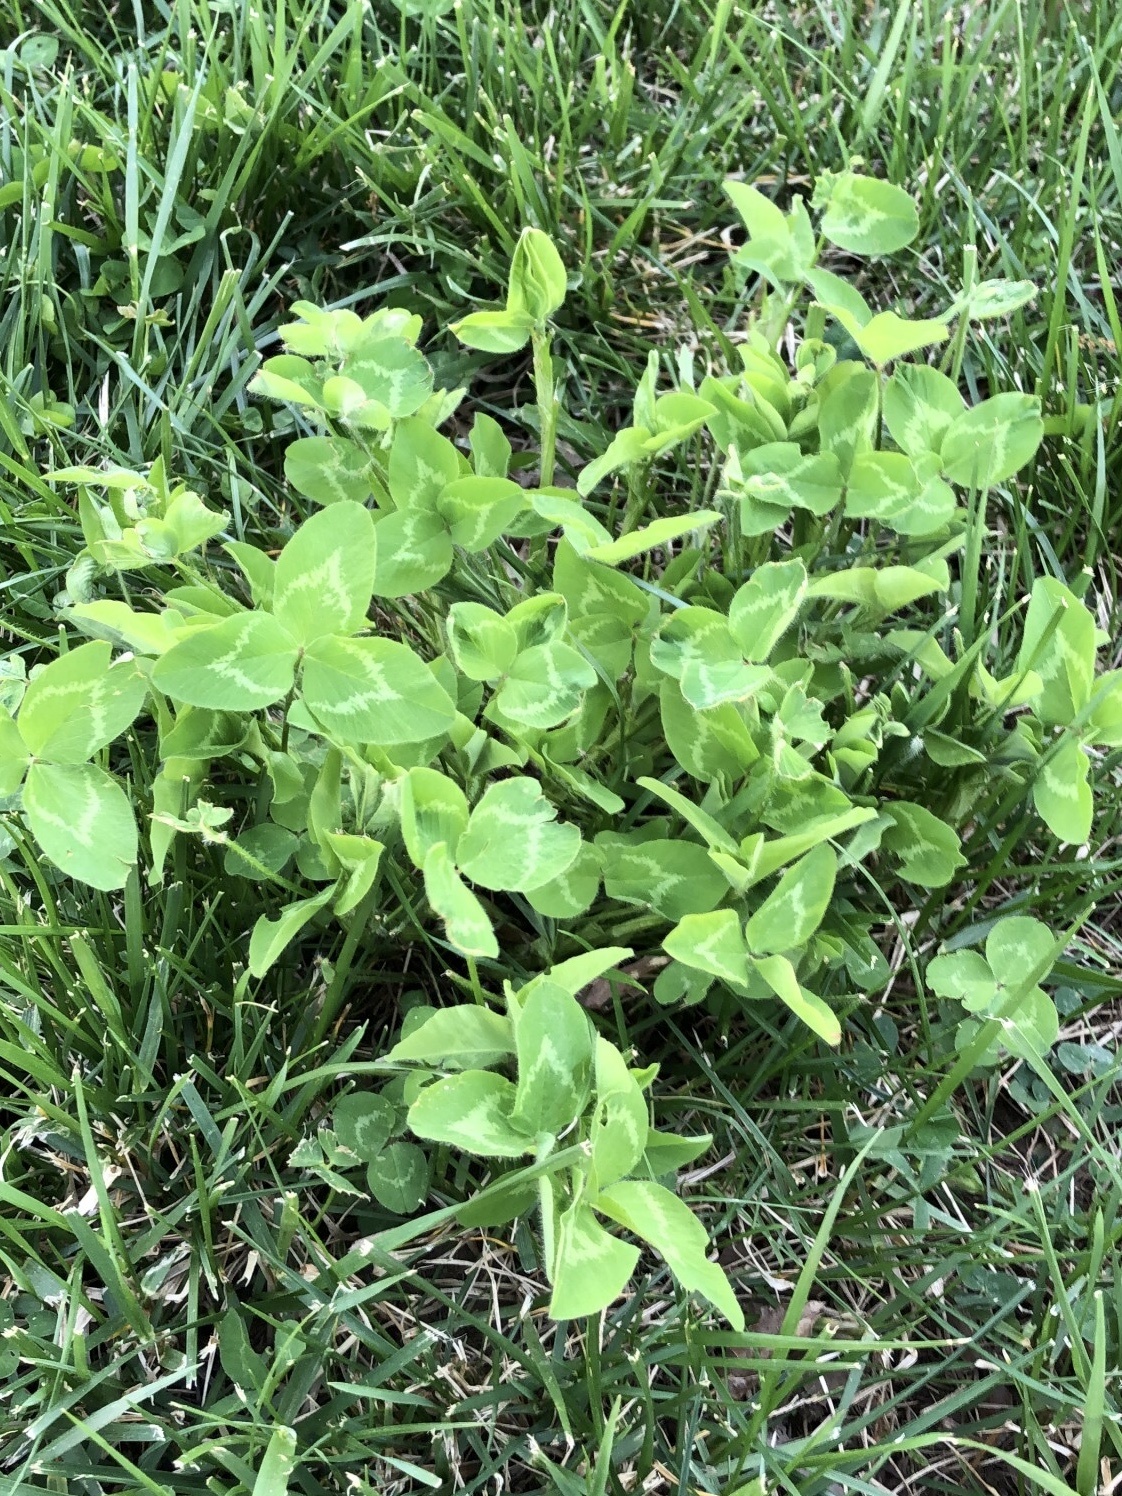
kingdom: Plantae
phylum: Tracheophyta
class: Magnoliopsida
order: Fabales
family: Fabaceae
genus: Trifolium
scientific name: Trifolium repens
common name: White clover
